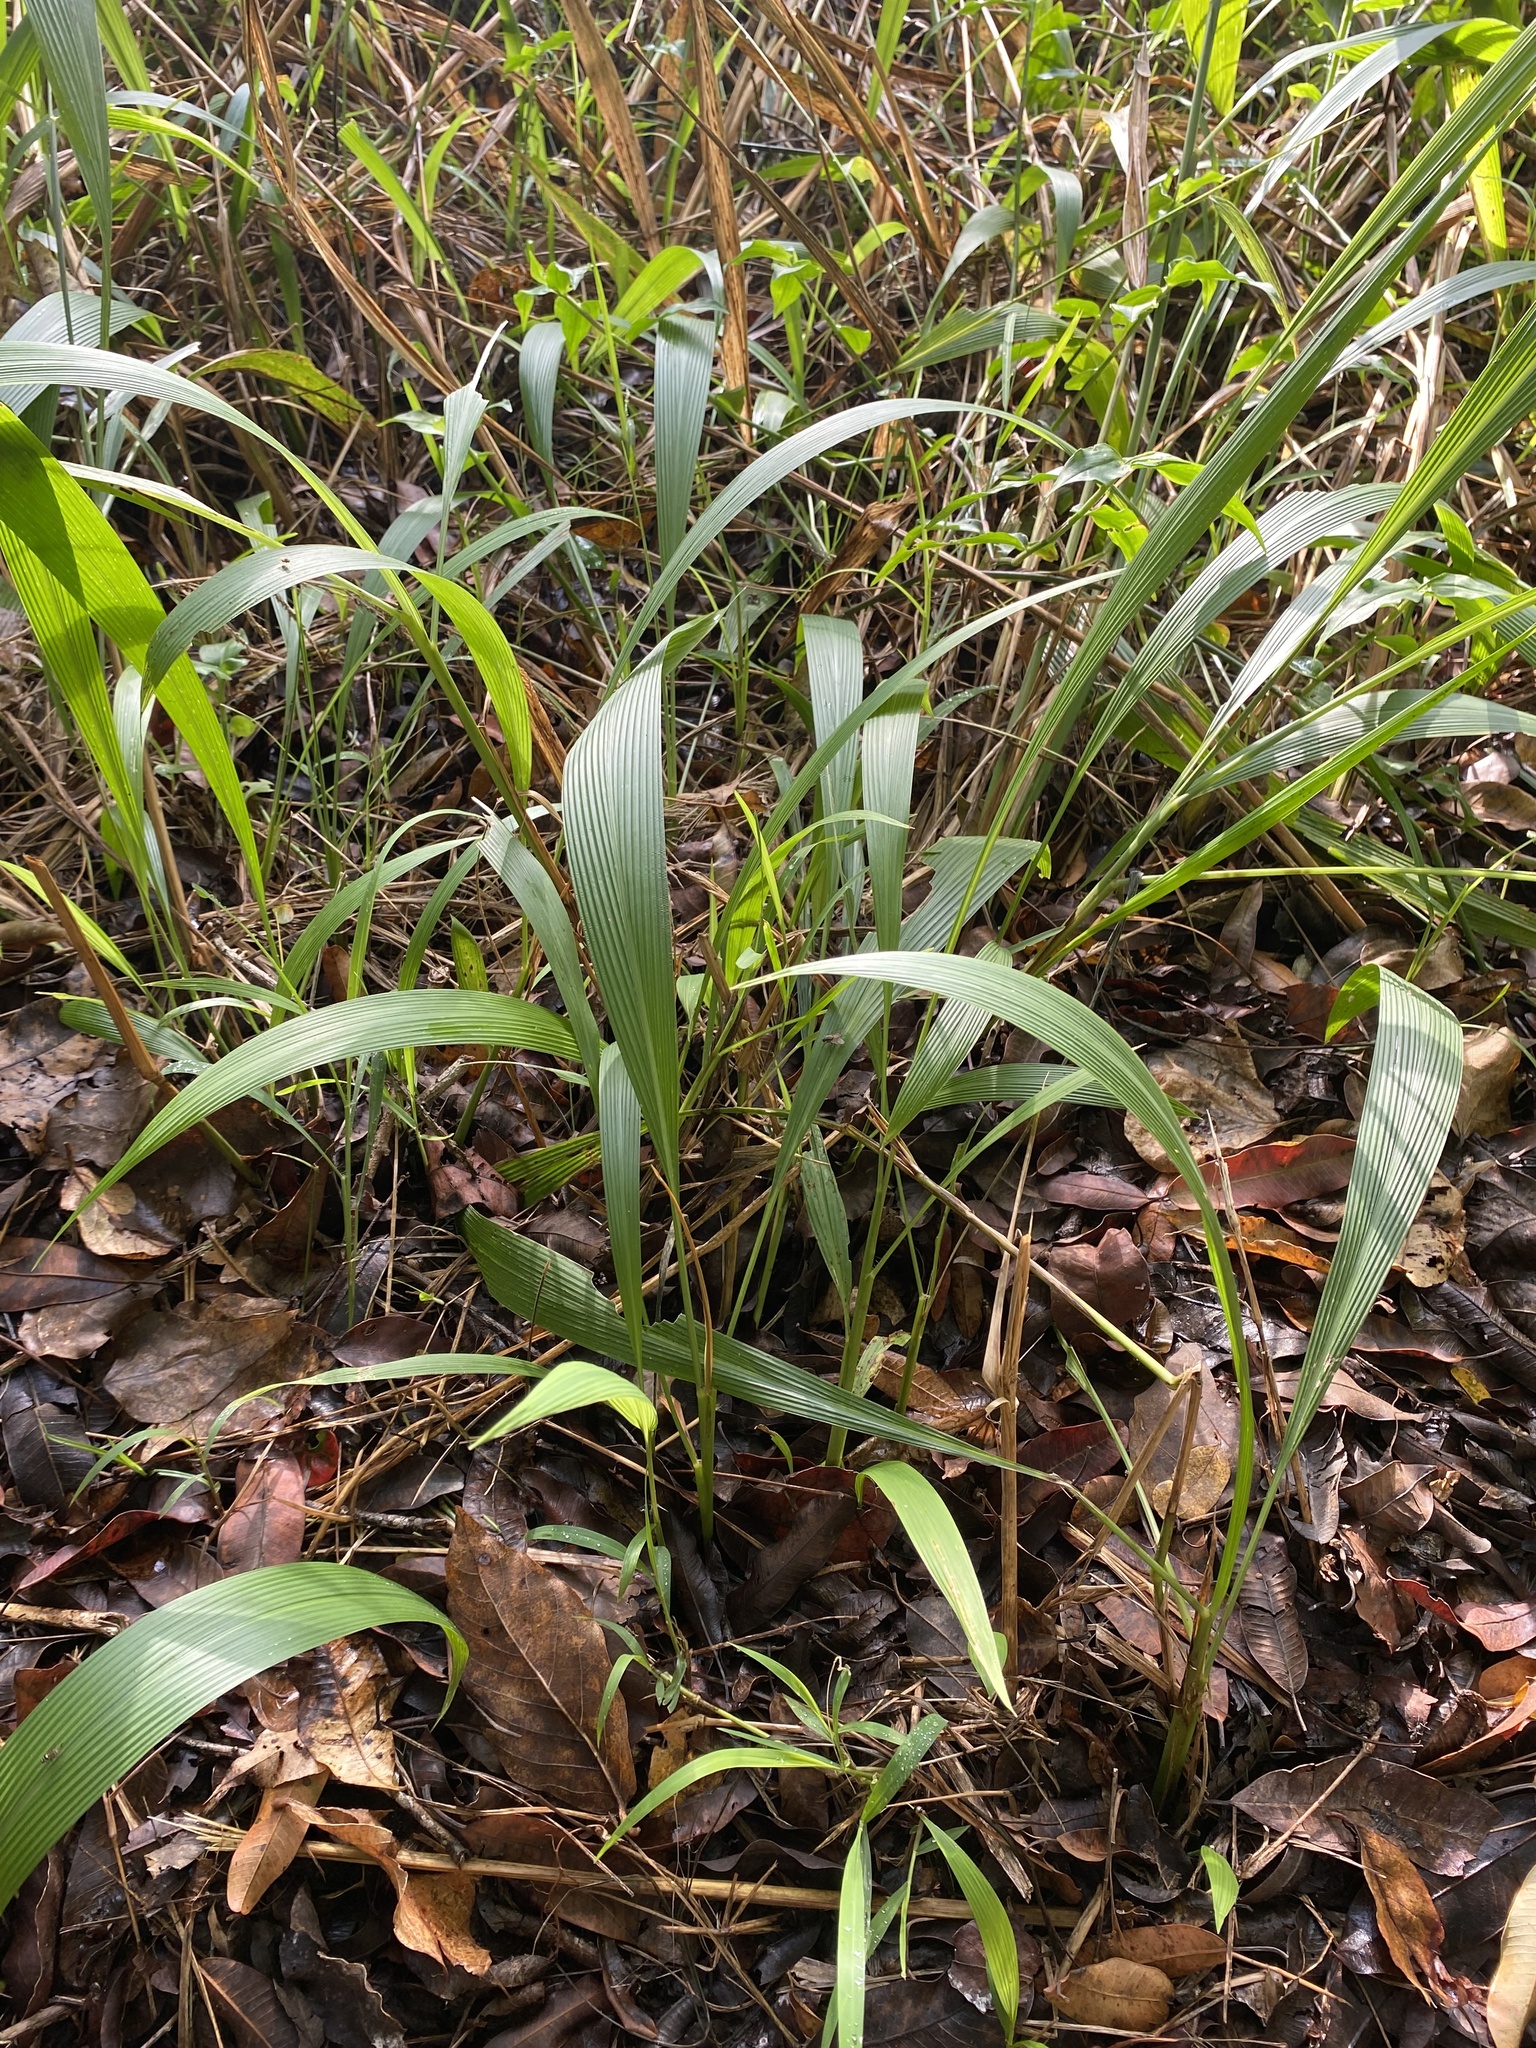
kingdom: Plantae
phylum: Tracheophyta
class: Liliopsida
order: Poales
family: Poaceae
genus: Setaria
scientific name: Setaria megaphylla
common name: Bigleaf bristlegrass
